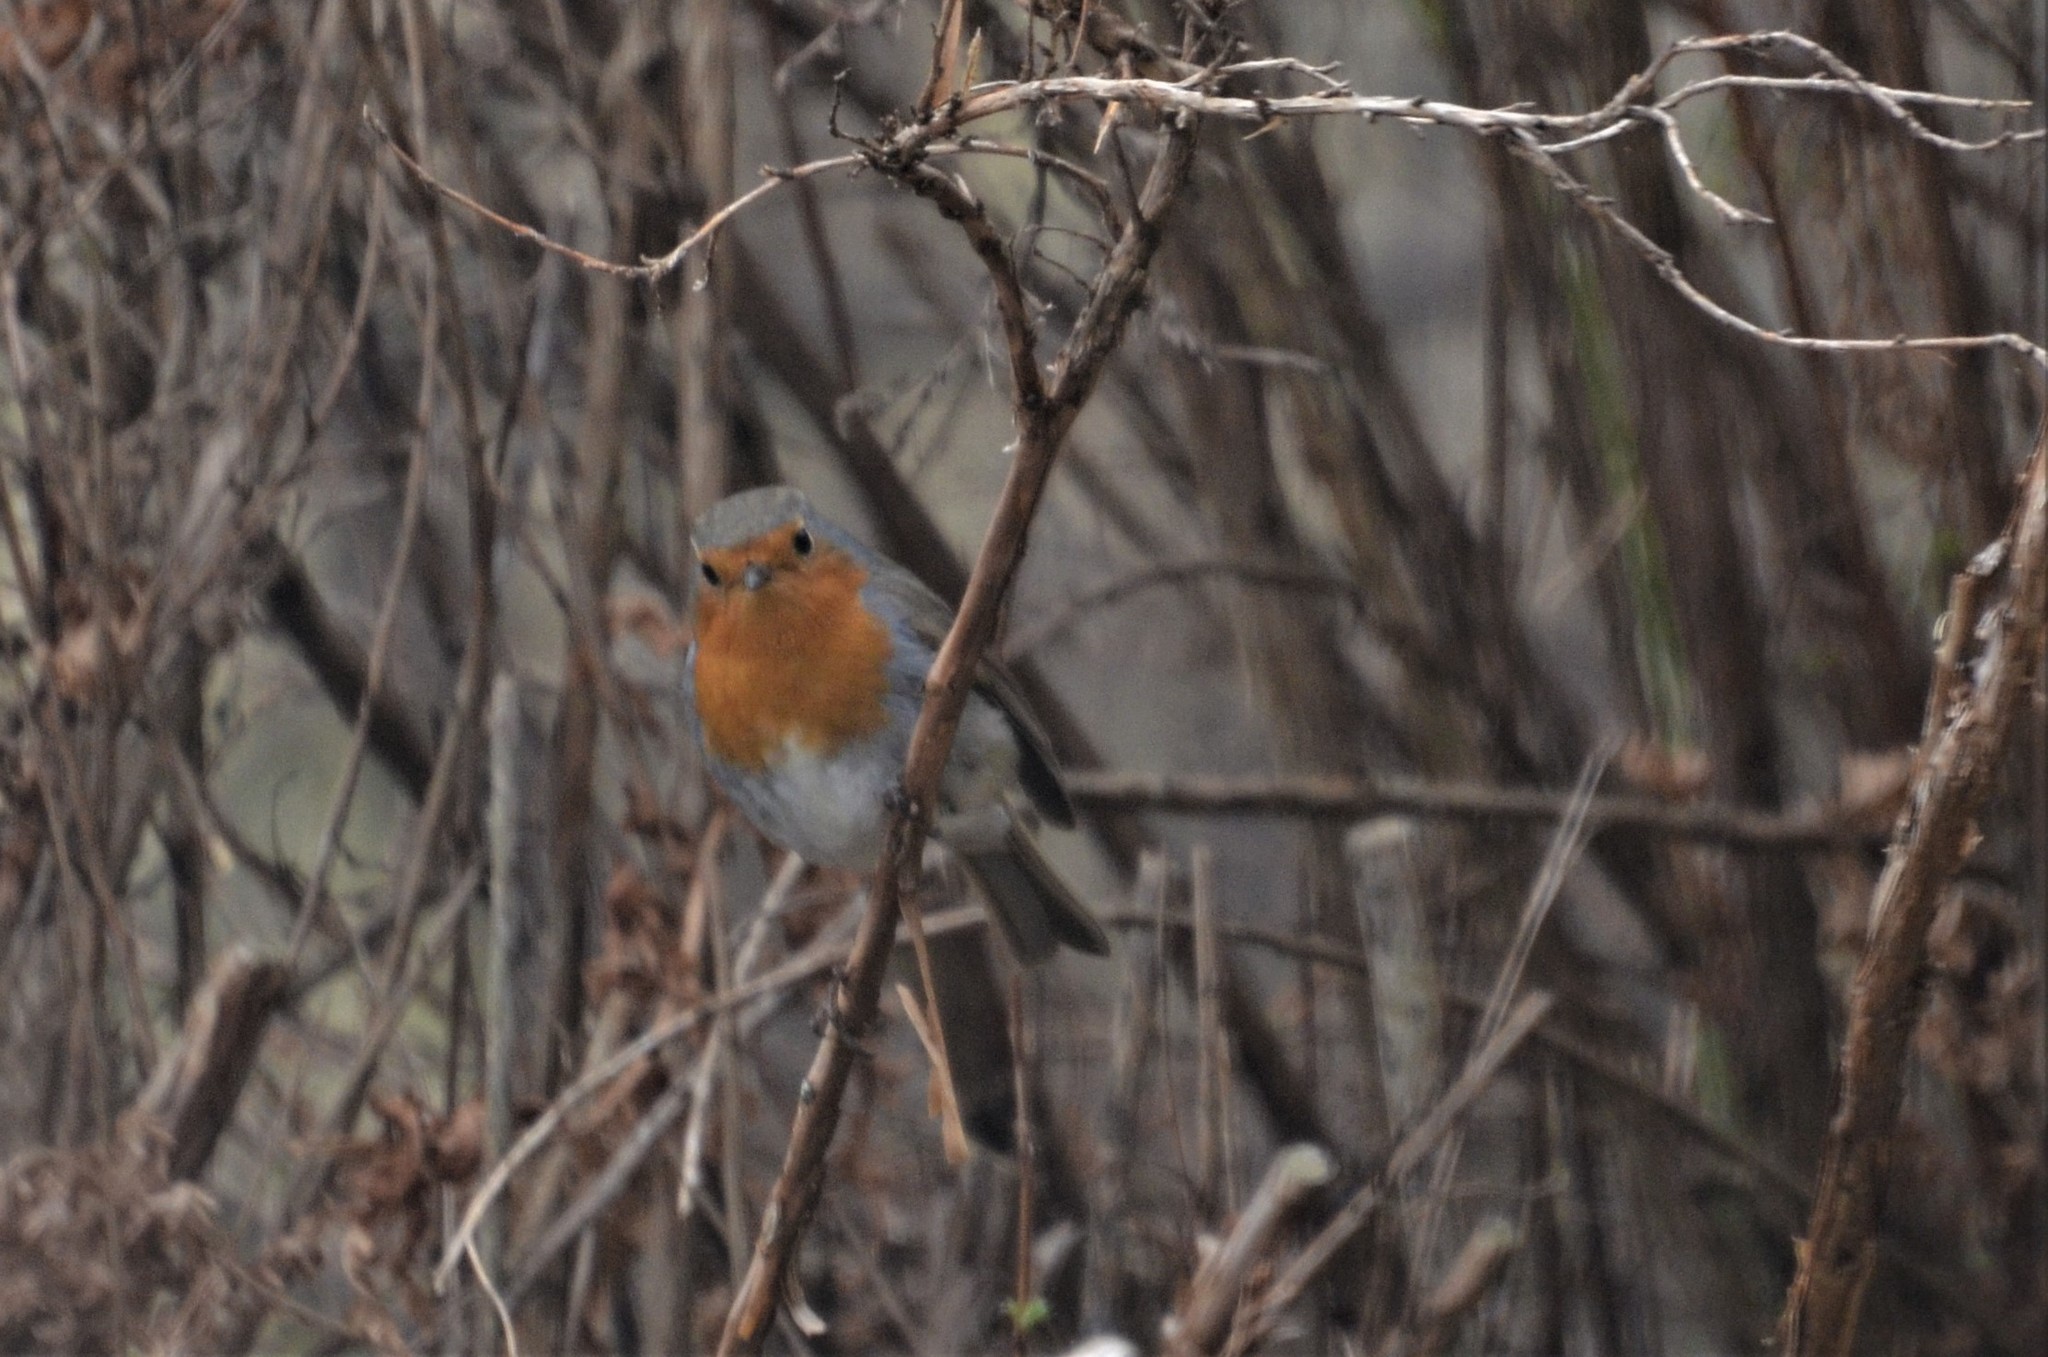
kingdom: Animalia
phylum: Chordata
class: Aves
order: Passeriformes
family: Muscicapidae
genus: Erithacus
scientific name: Erithacus rubecula
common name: European robin
